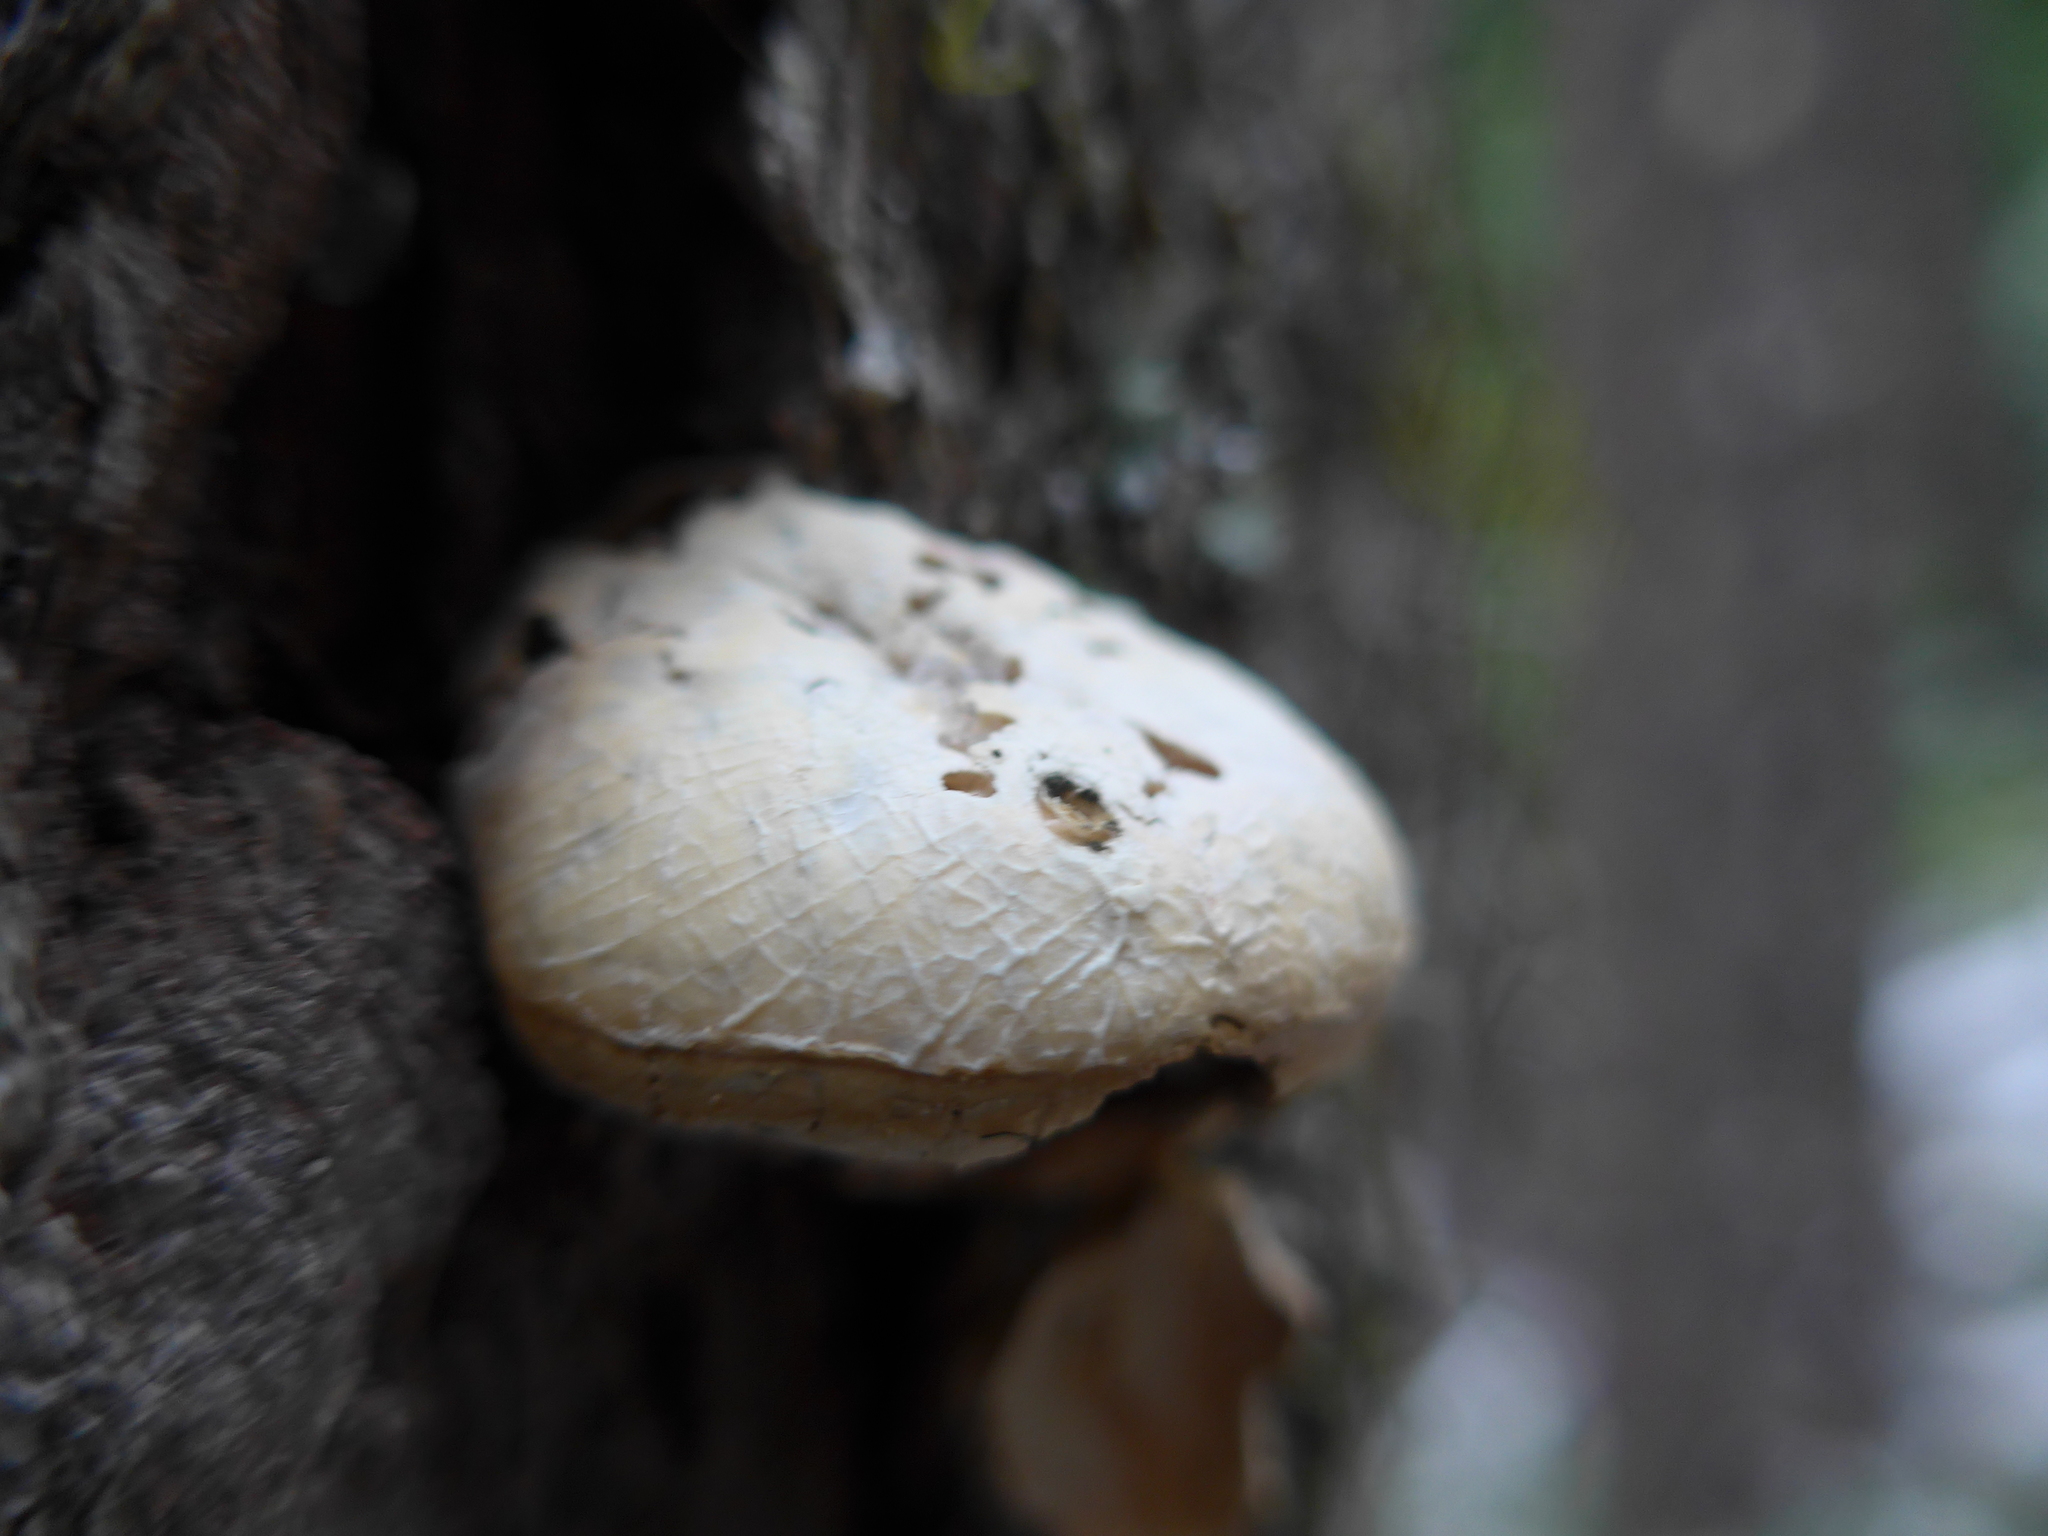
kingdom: Fungi
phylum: Basidiomycota
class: Agaricomycetes
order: Polyporales
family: Polyporaceae
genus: Cryptoporus
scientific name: Cryptoporus volvatus
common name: Veiled polypore
